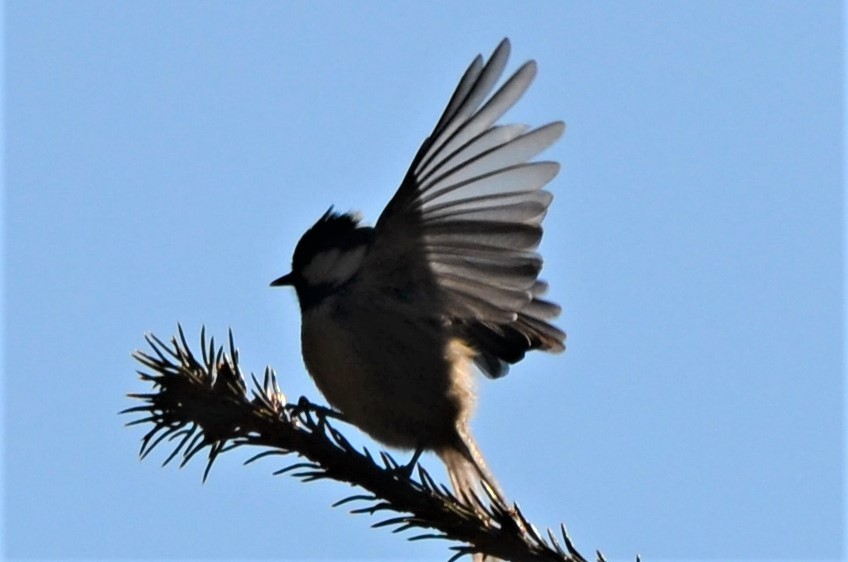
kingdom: Animalia
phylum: Chordata
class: Aves
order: Passeriformes
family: Paridae
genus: Periparus
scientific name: Periparus ater
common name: Coal tit
